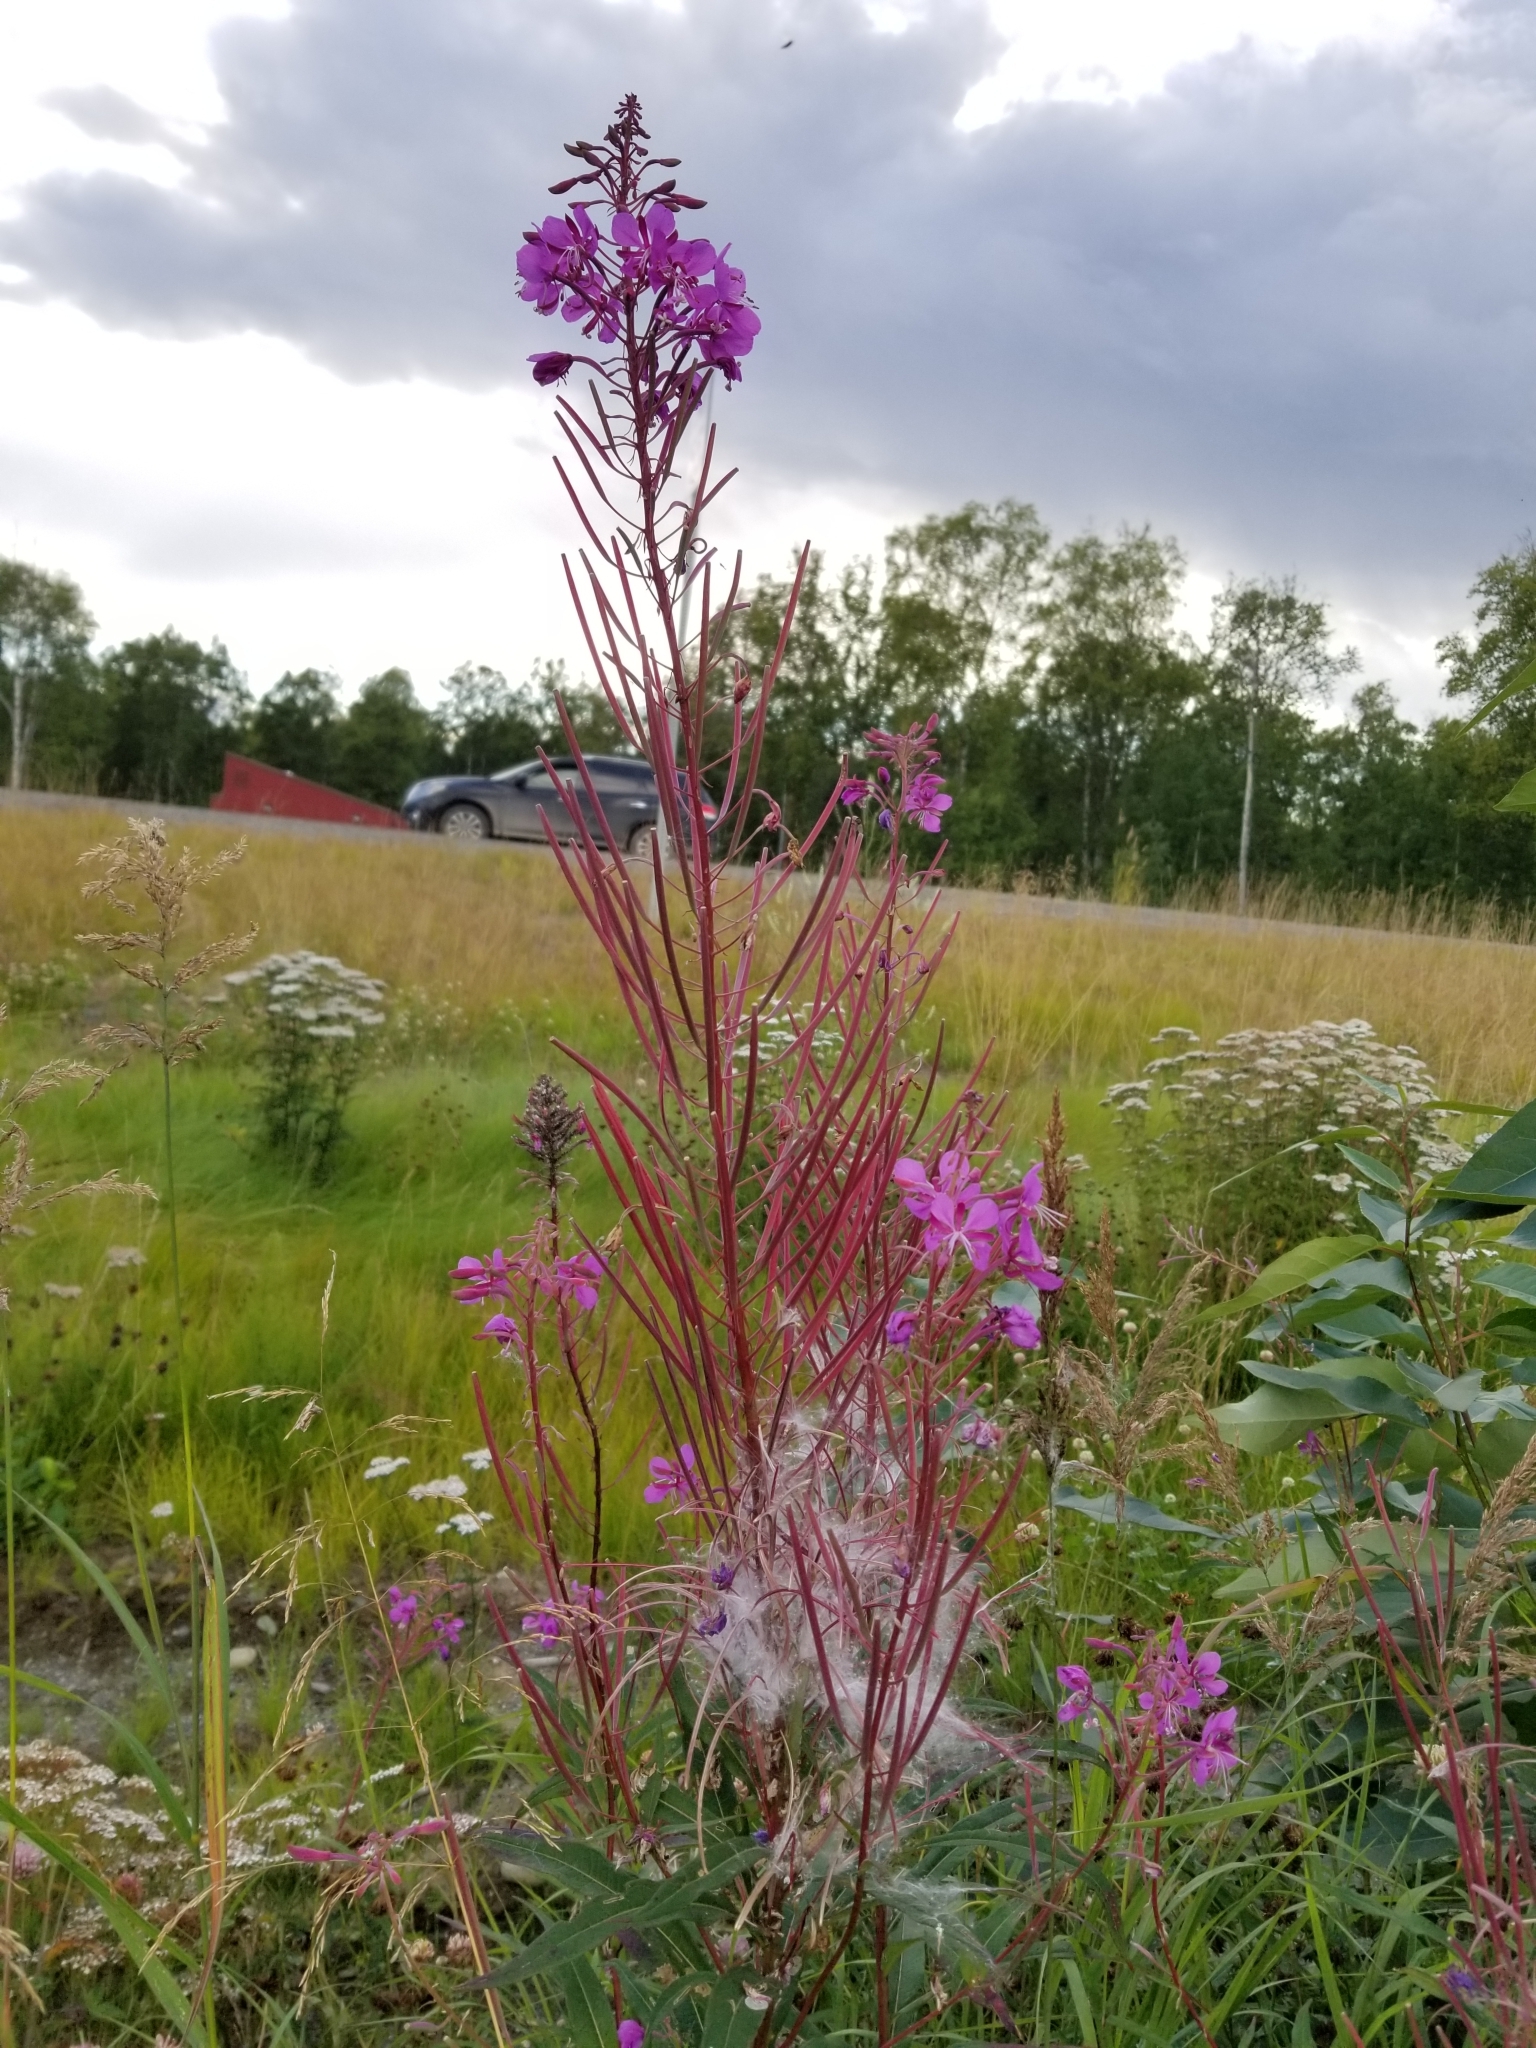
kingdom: Plantae
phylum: Tracheophyta
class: Magnoliopsida
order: Myrtales
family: Onagraceae
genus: Chamaenerion
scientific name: Chamaenerion angustifolium
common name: Fireweed
